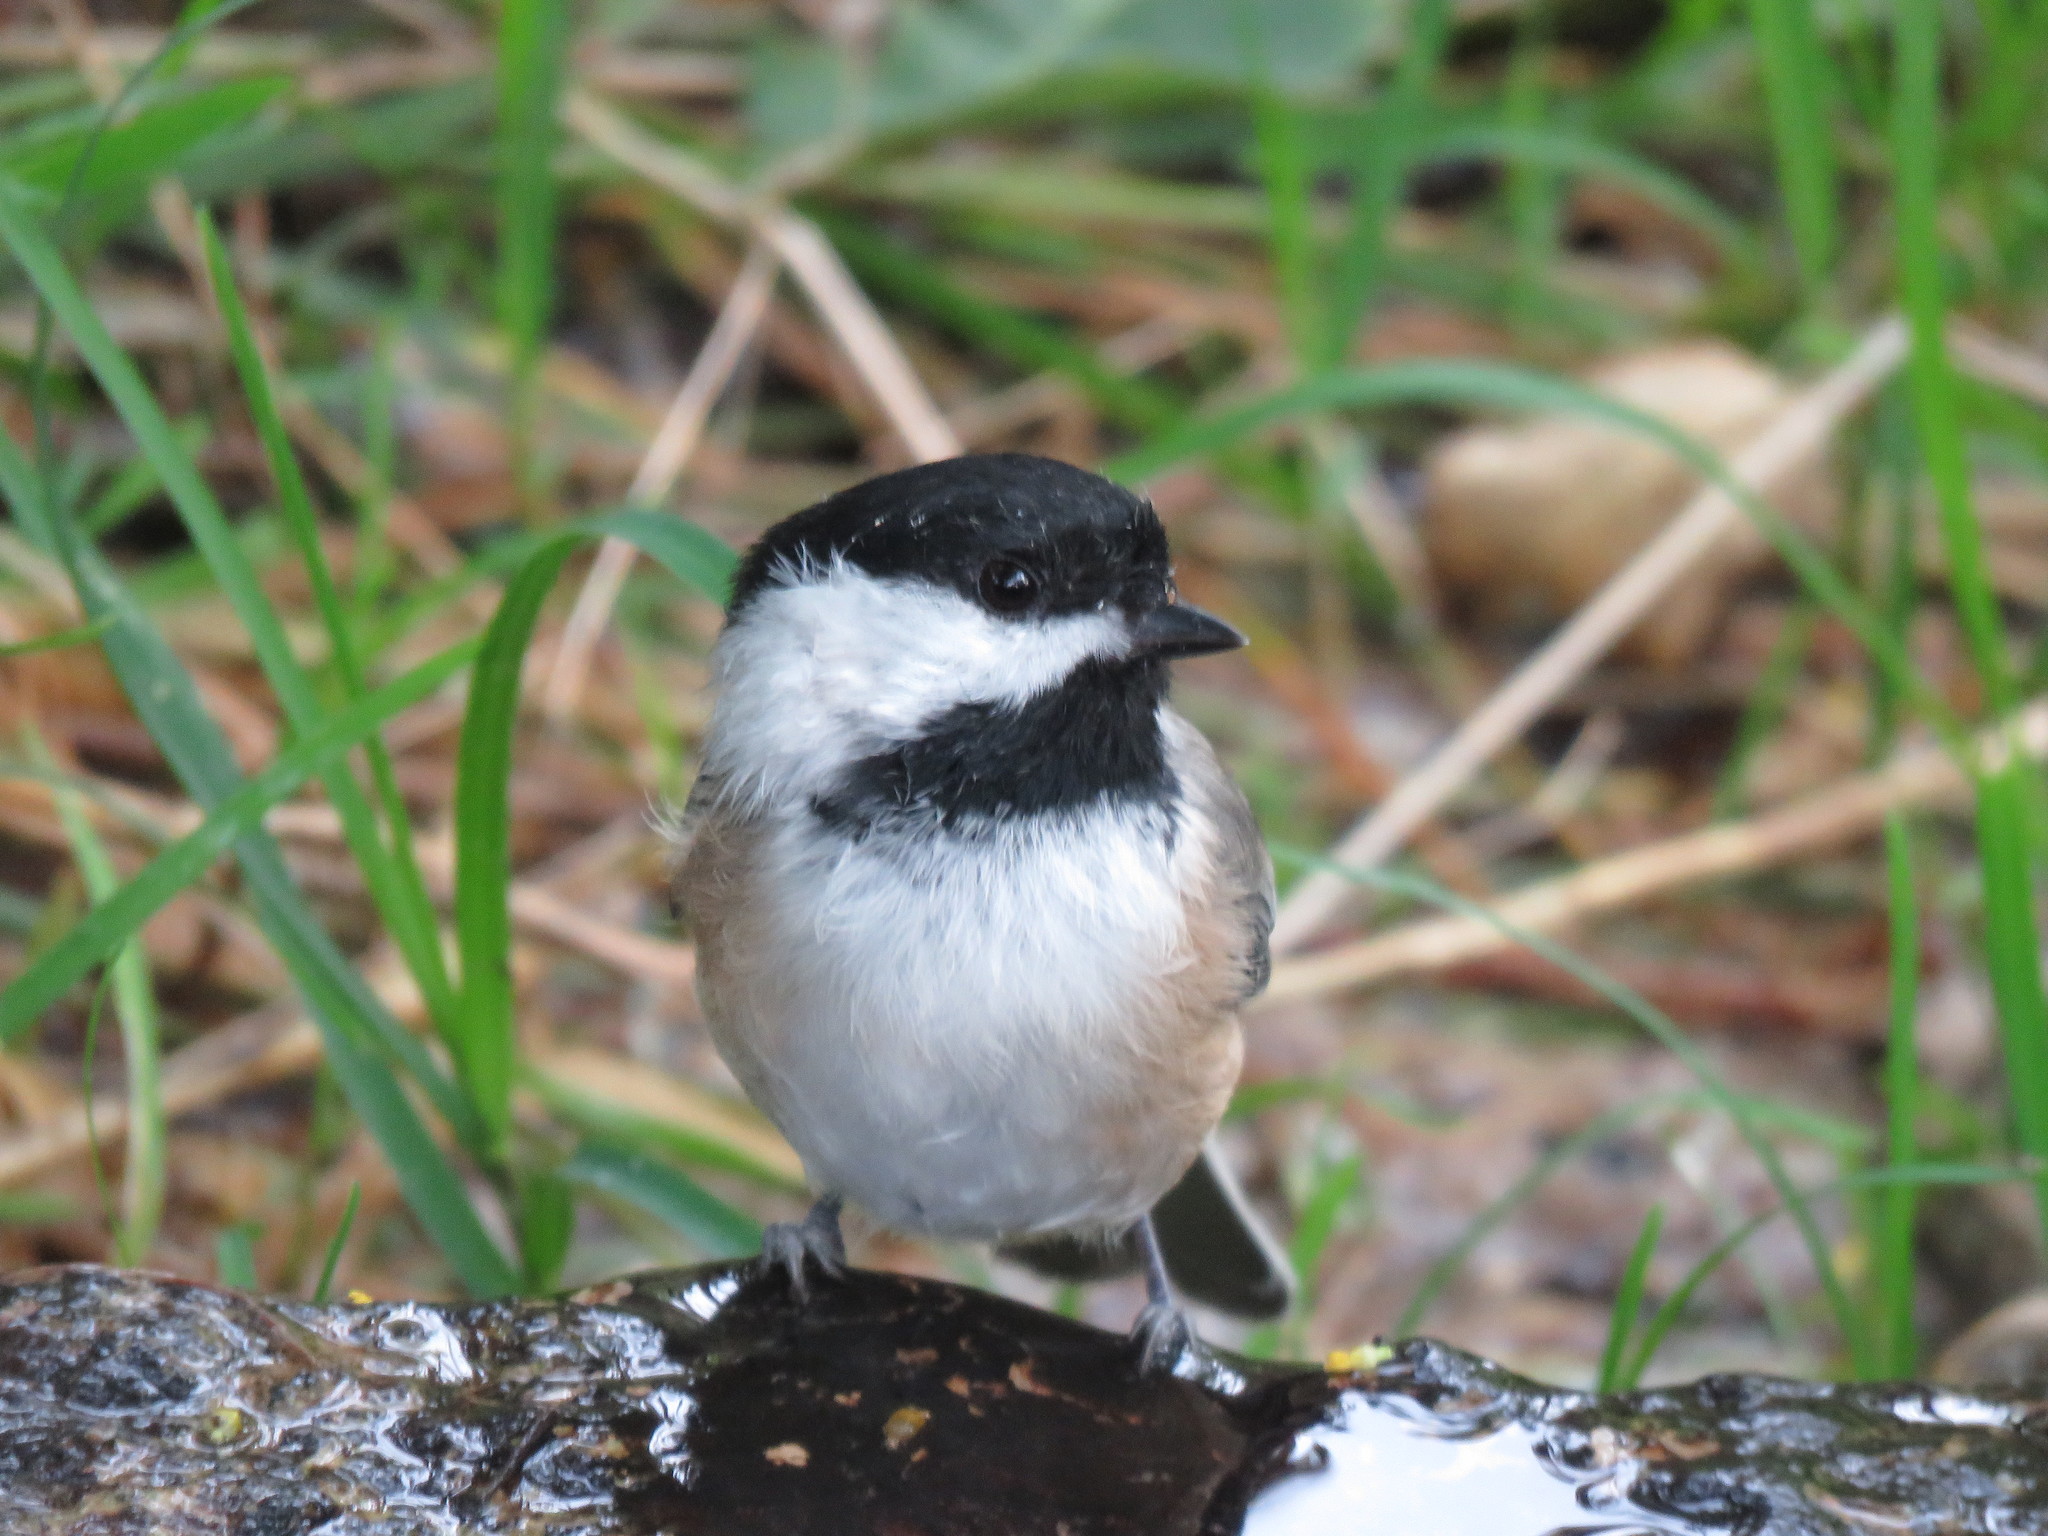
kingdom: Animalia
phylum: Chordata
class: Aves
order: Passeriformes
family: Paridae
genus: Poecile
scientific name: Poecile atricapillus
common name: Black-capped chickadee
